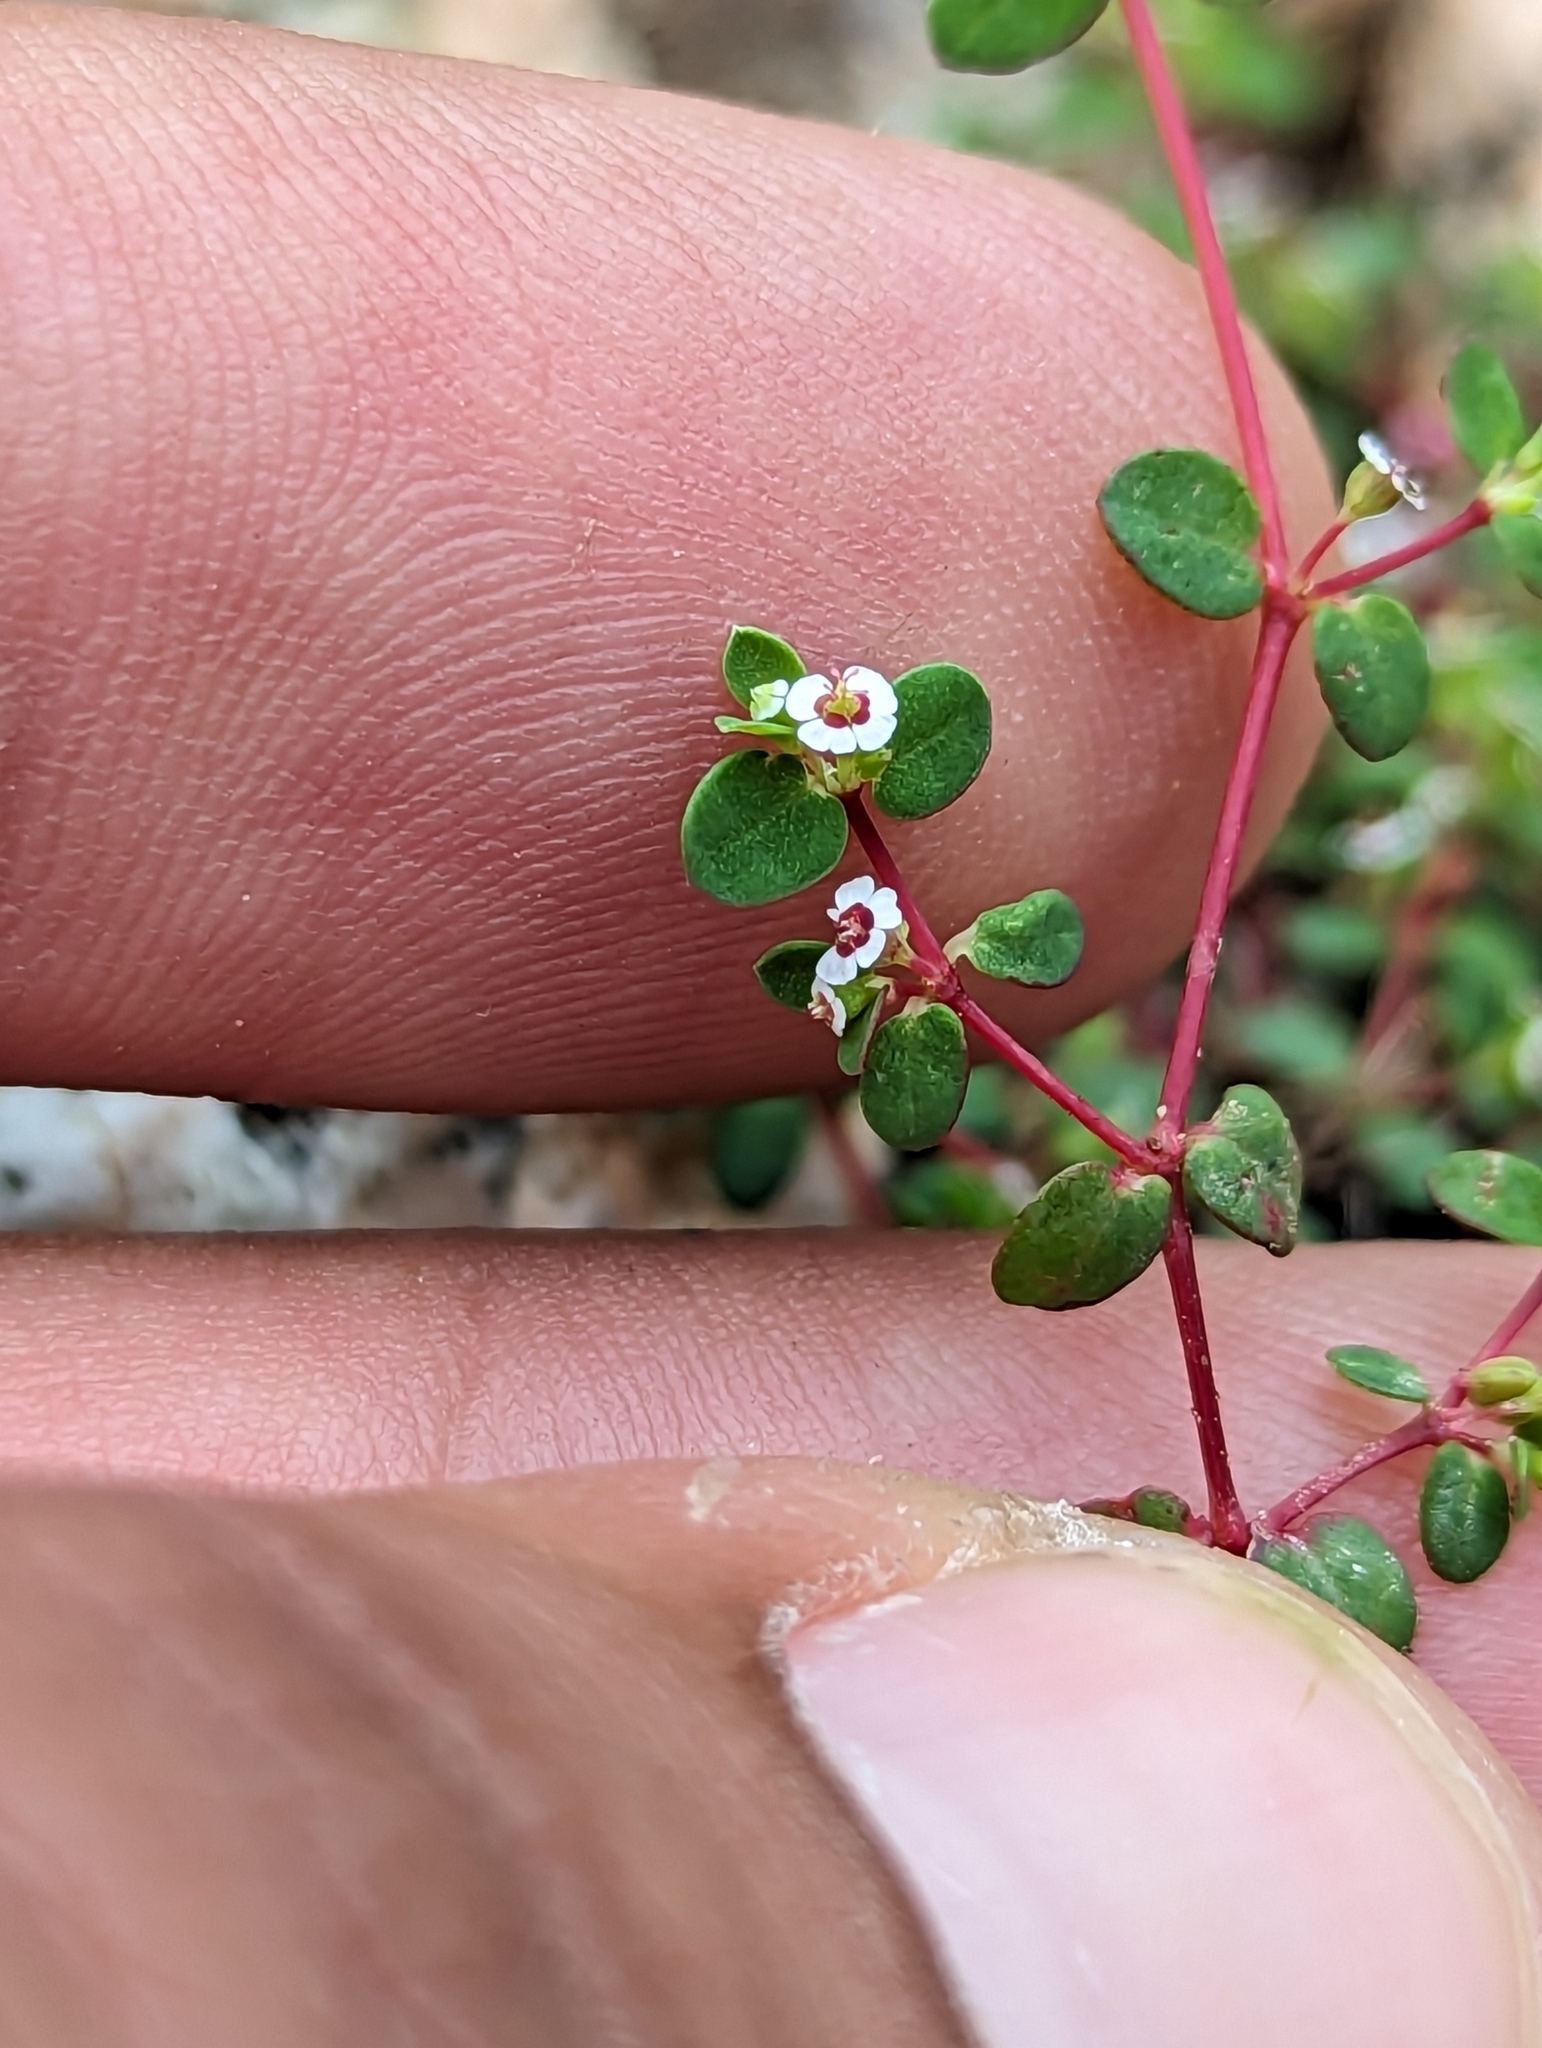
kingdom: Plantae
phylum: Tracheophyta
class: Magnoliopsida
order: Malpighiales
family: Euphorbiaceae
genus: Euphorbia
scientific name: Euphorbia polycarpa
